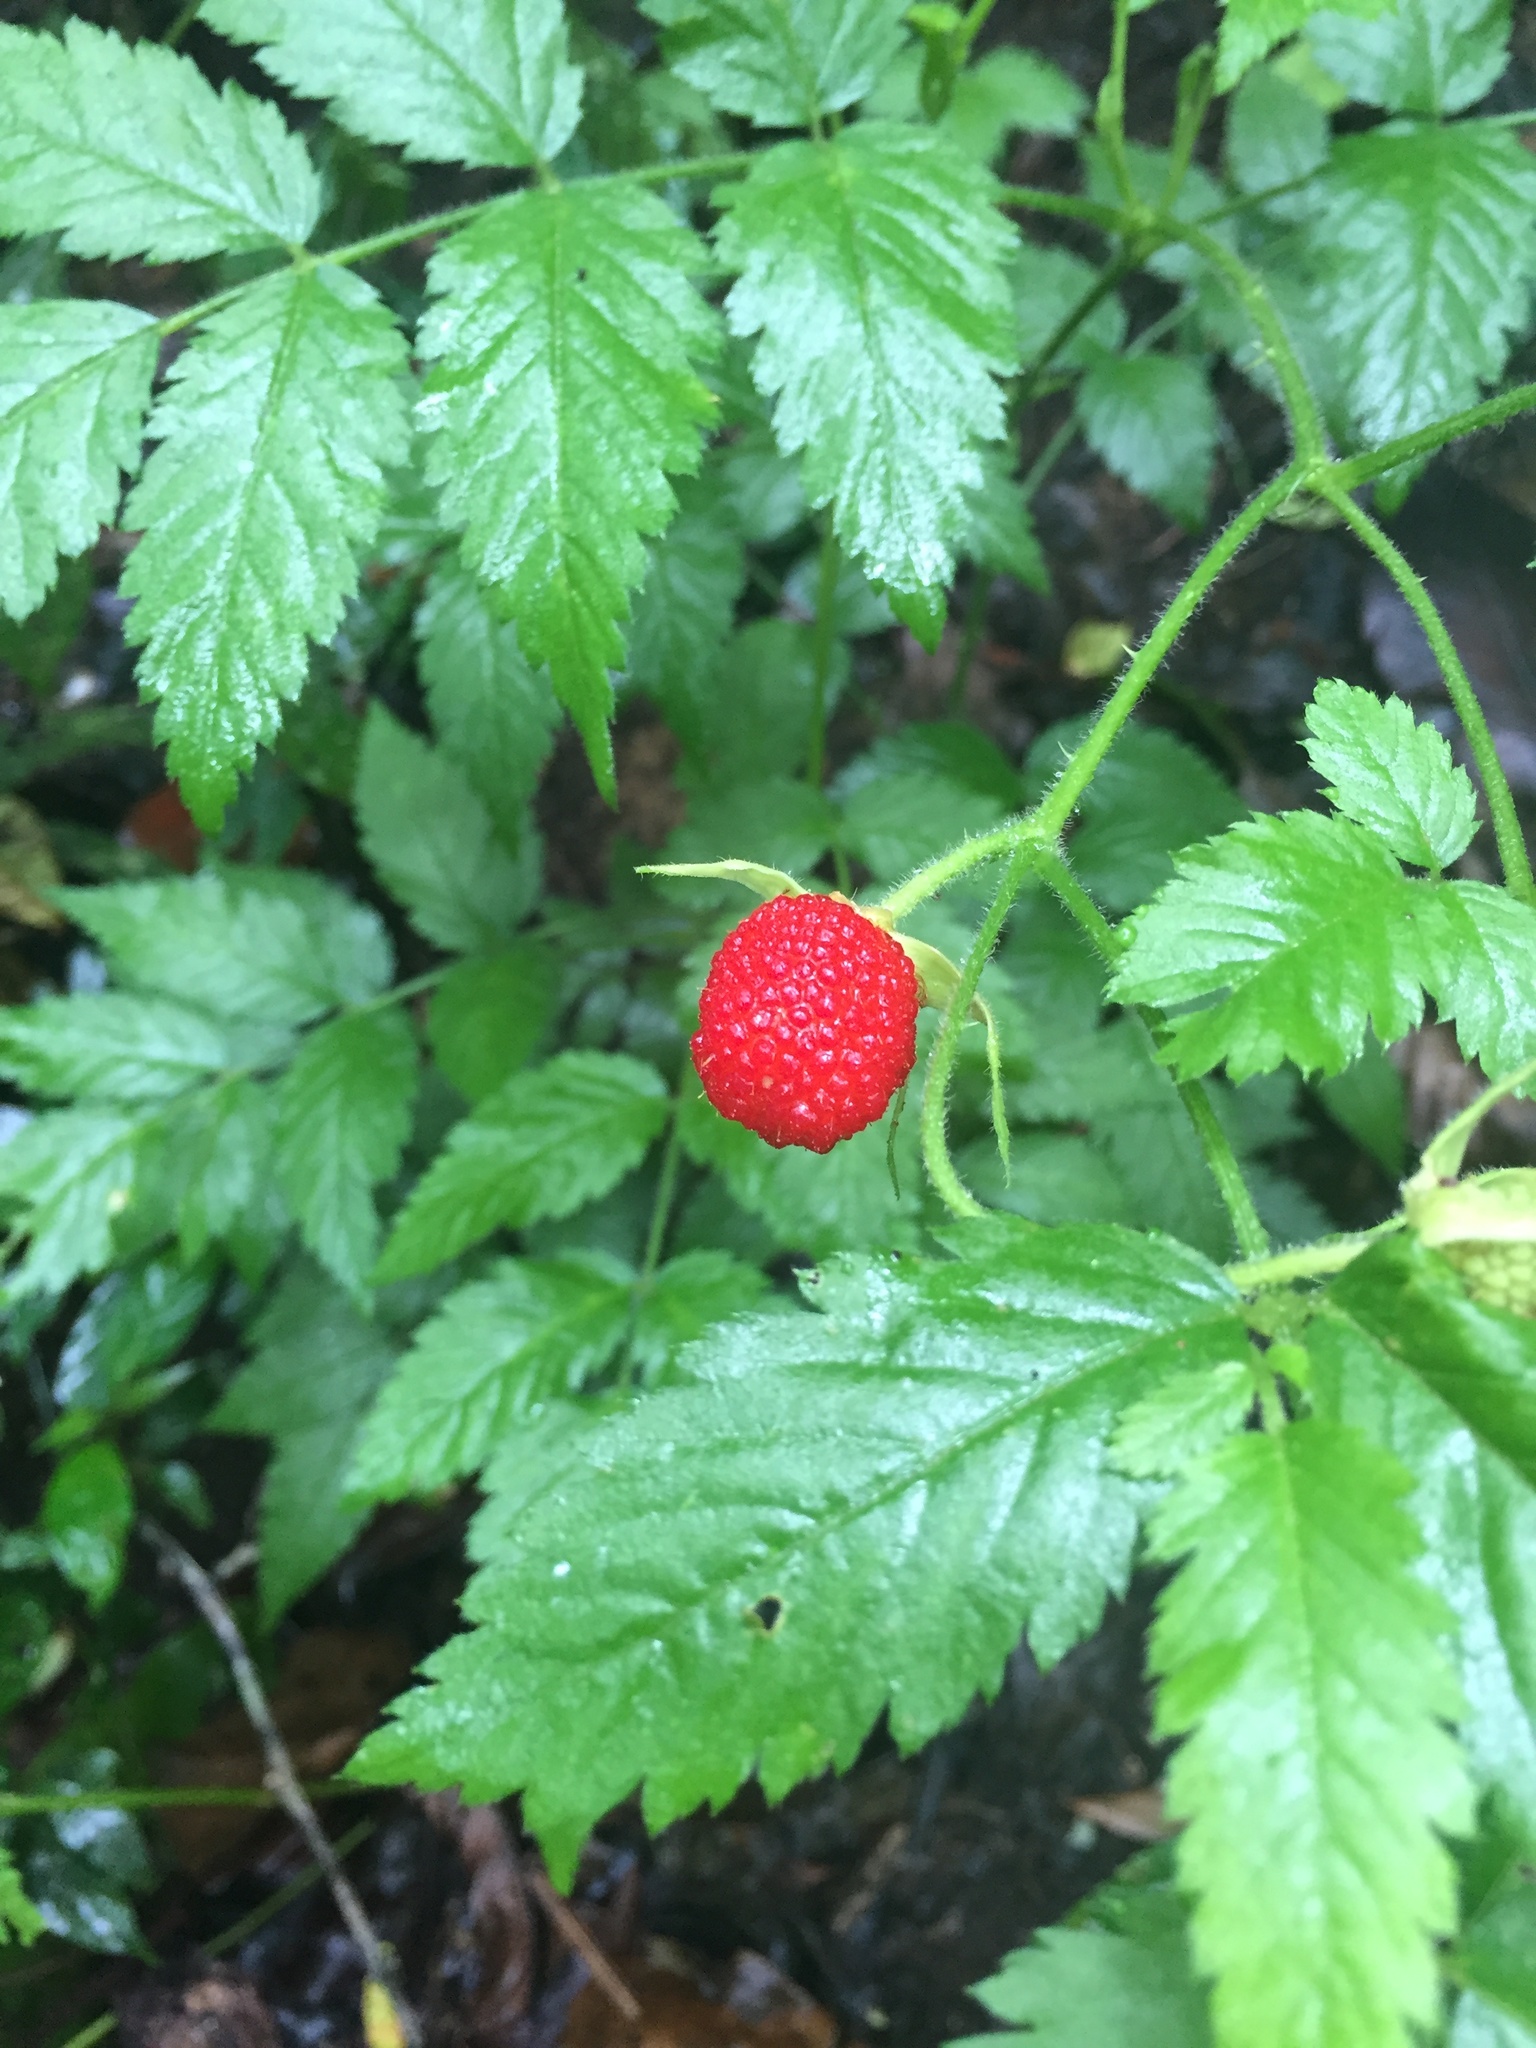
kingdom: Plantae
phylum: Tracheophyta
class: Magnoliopsida
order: Rosales
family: Rosaceae
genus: Rubus
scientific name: Rubus rosifolius
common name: Roseleaf raspberry
